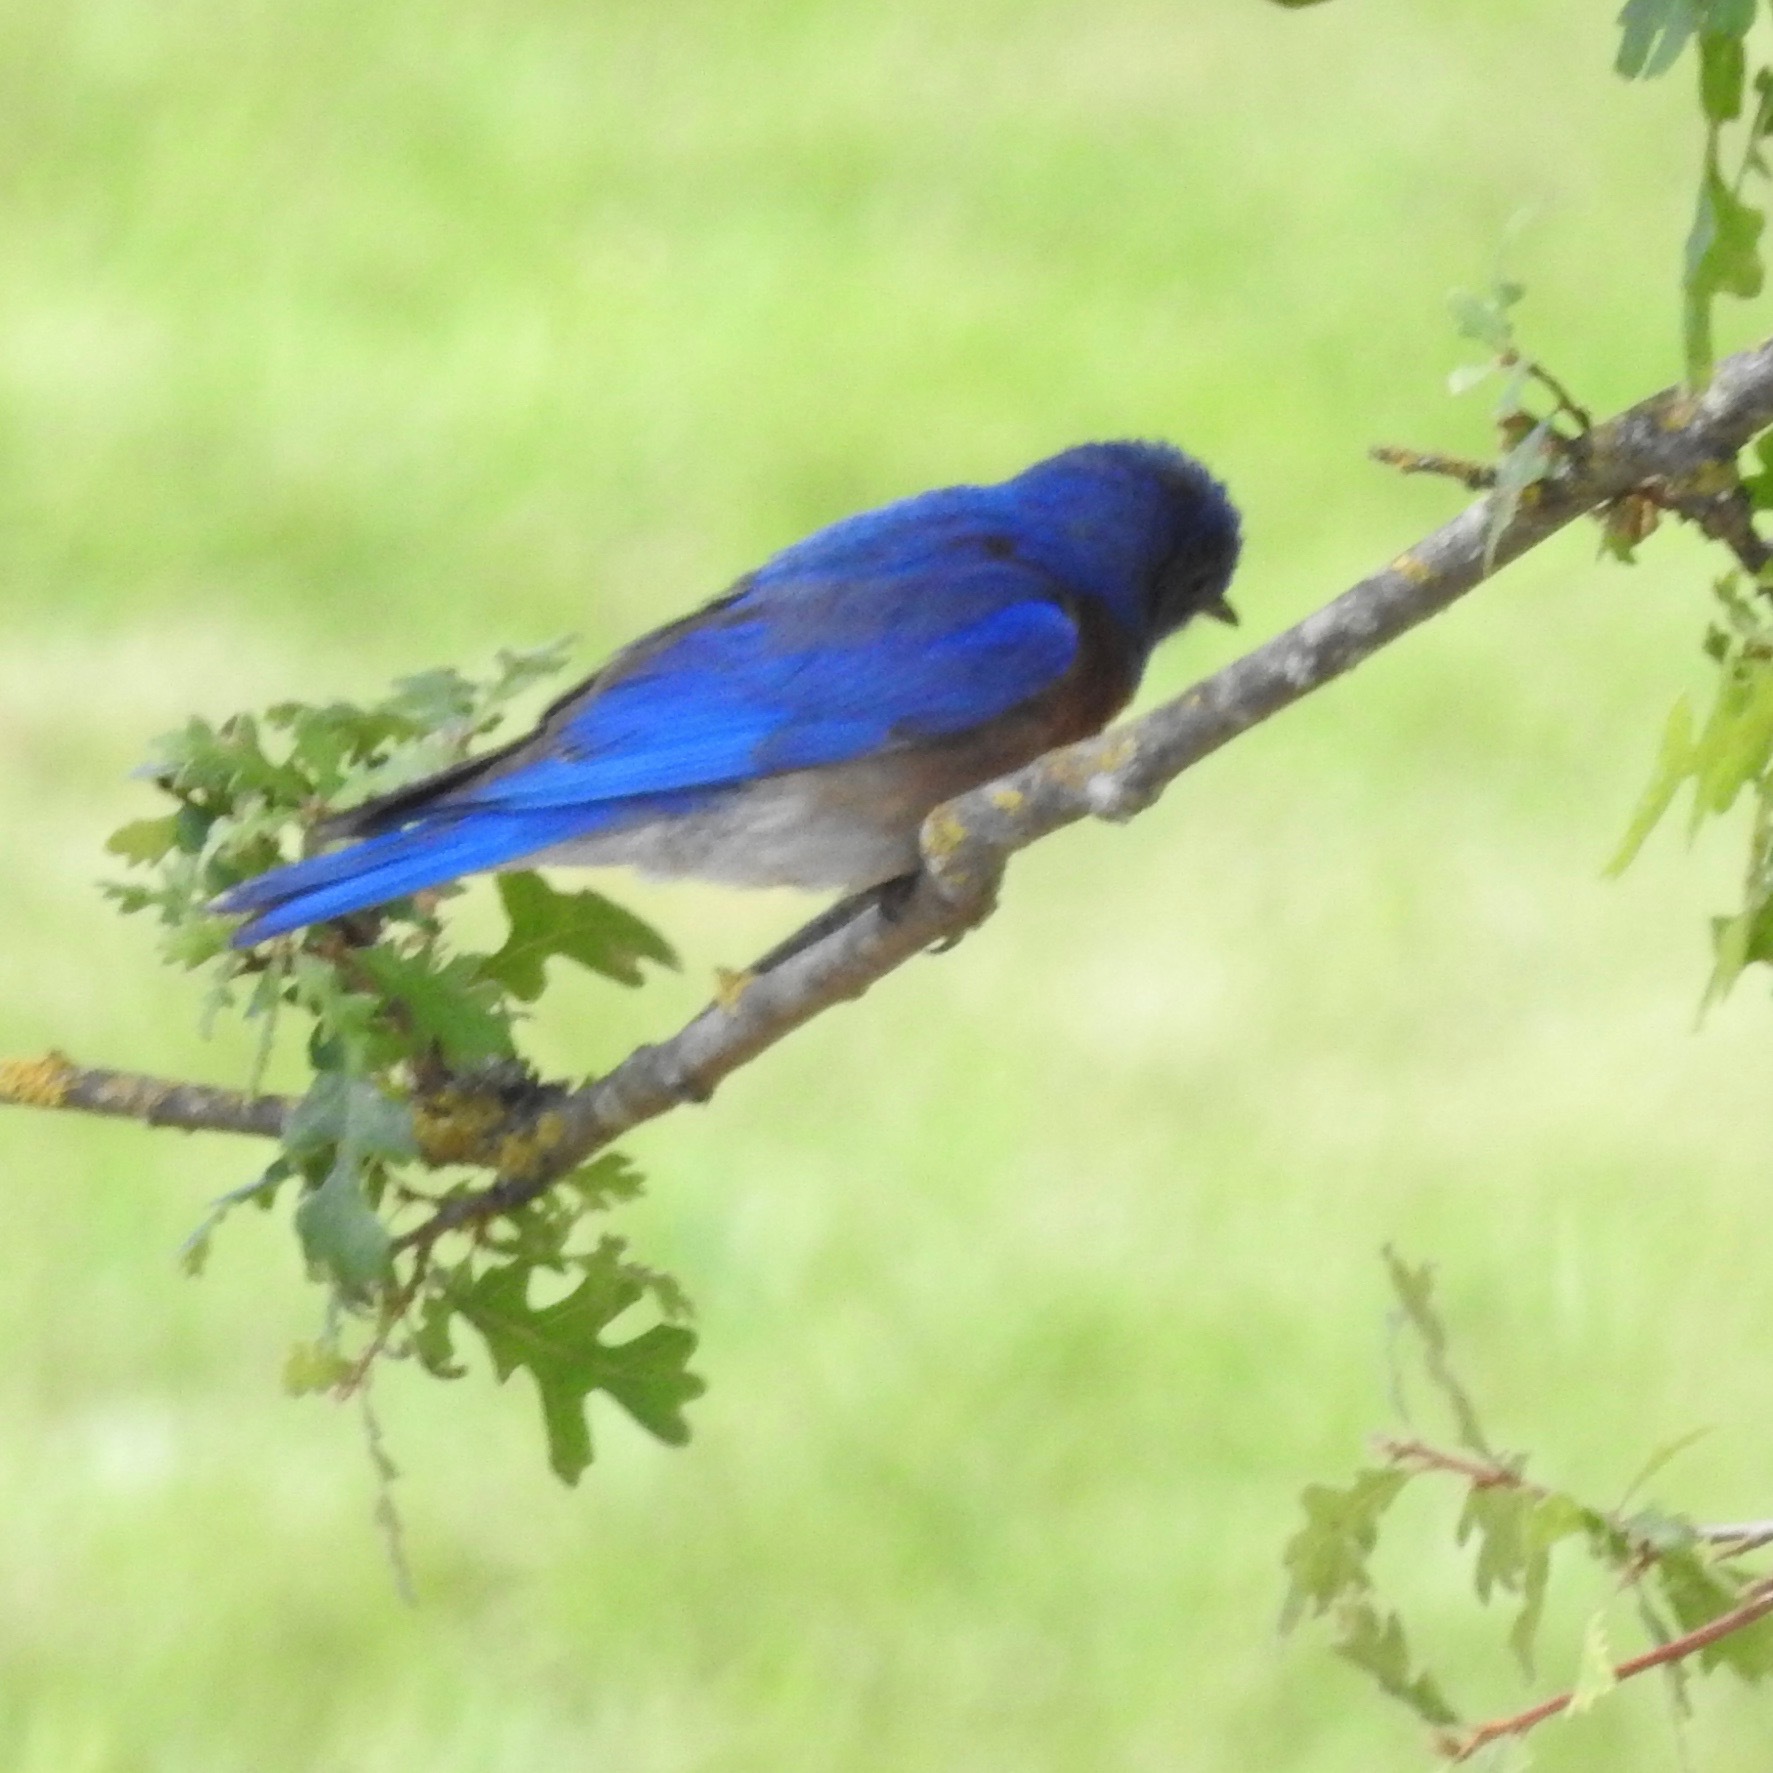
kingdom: Animalia
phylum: Chordata
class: Aves
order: Passeriformes
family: Turdidae
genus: Sialia
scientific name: Sialia mexicana
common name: Western bluebird
